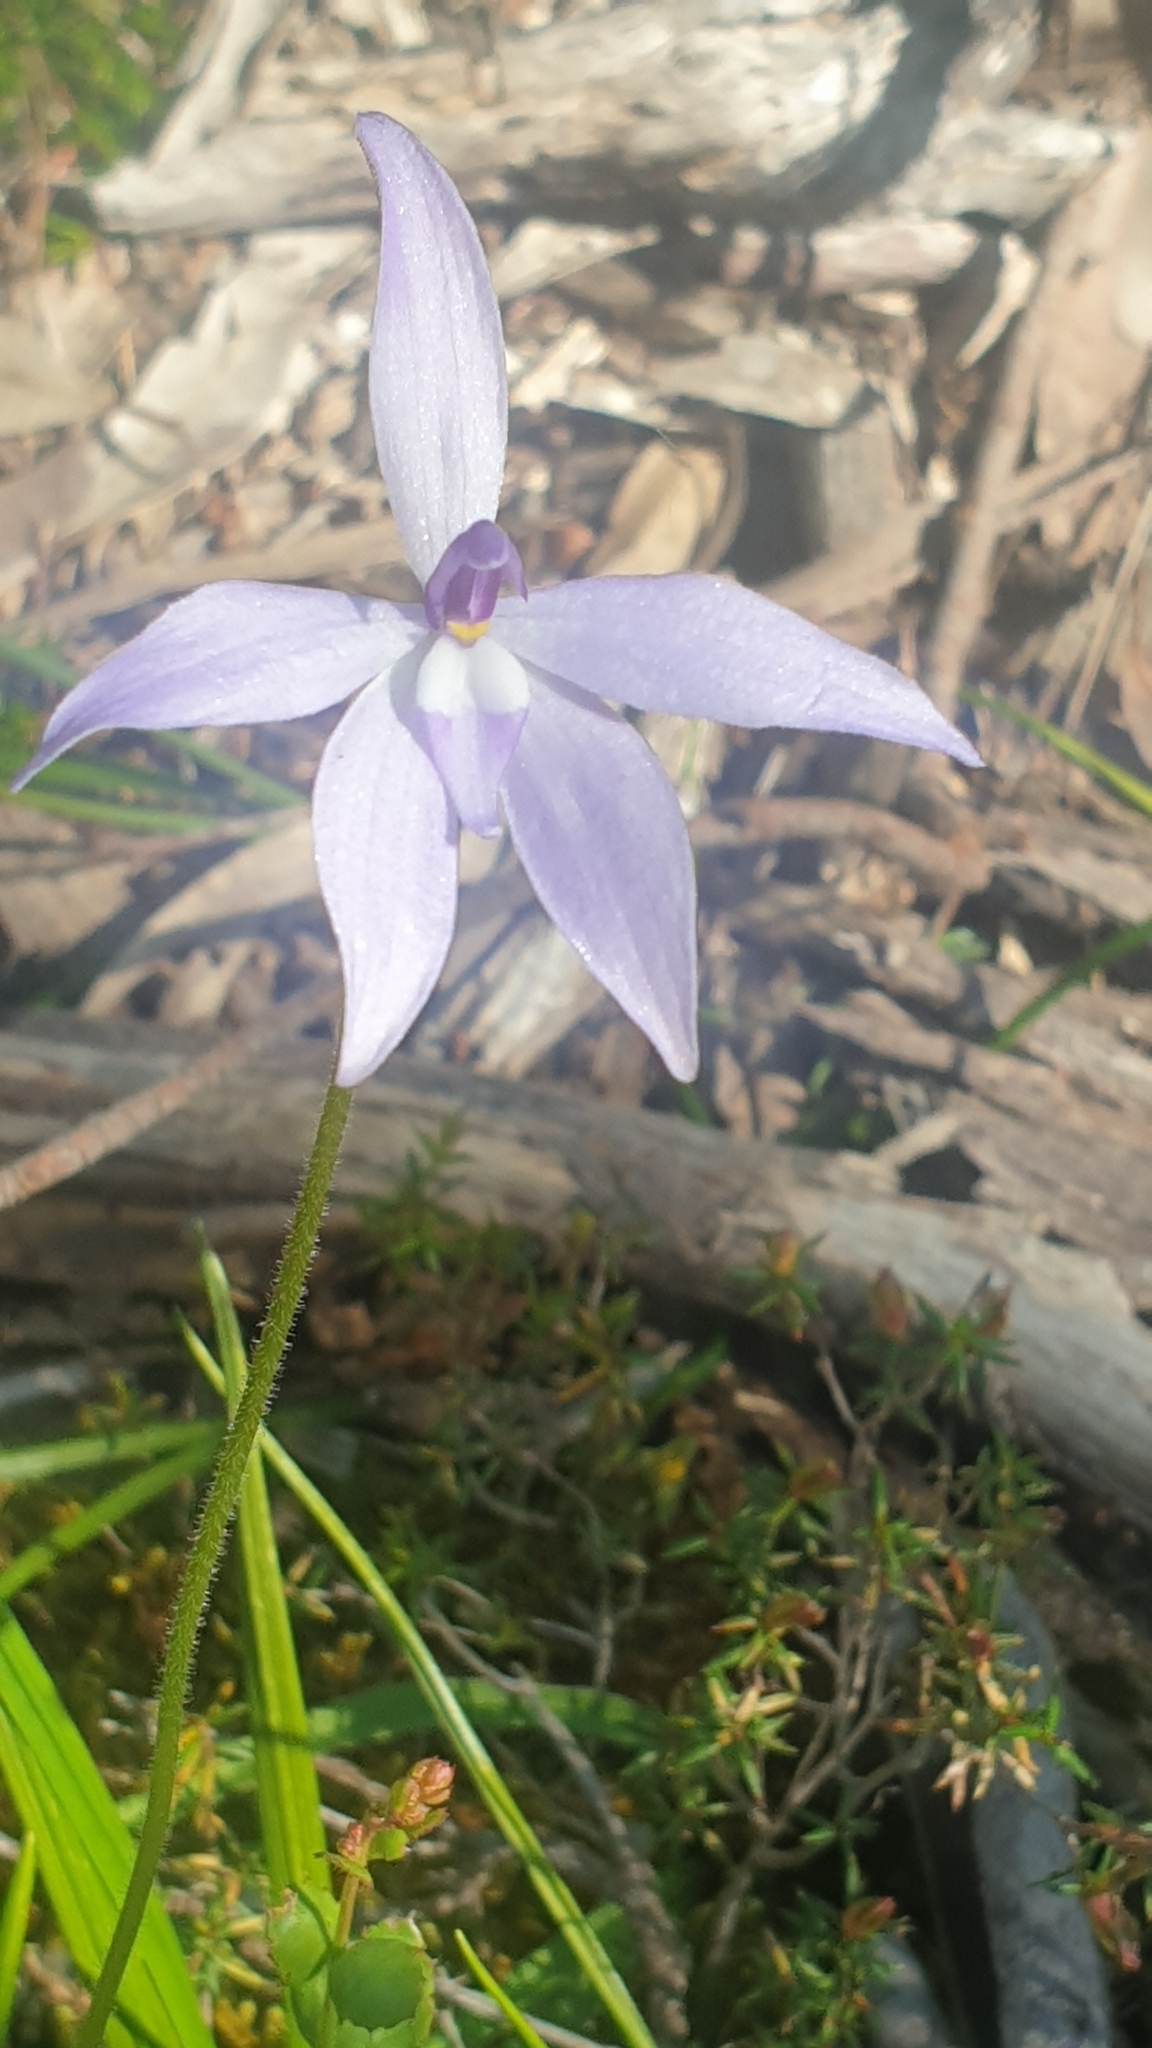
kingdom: Plantae
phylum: Tracheophyta
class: Liliopsida
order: Asparagales
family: Orchidaceae
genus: Caladenia
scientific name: Caladenia major
